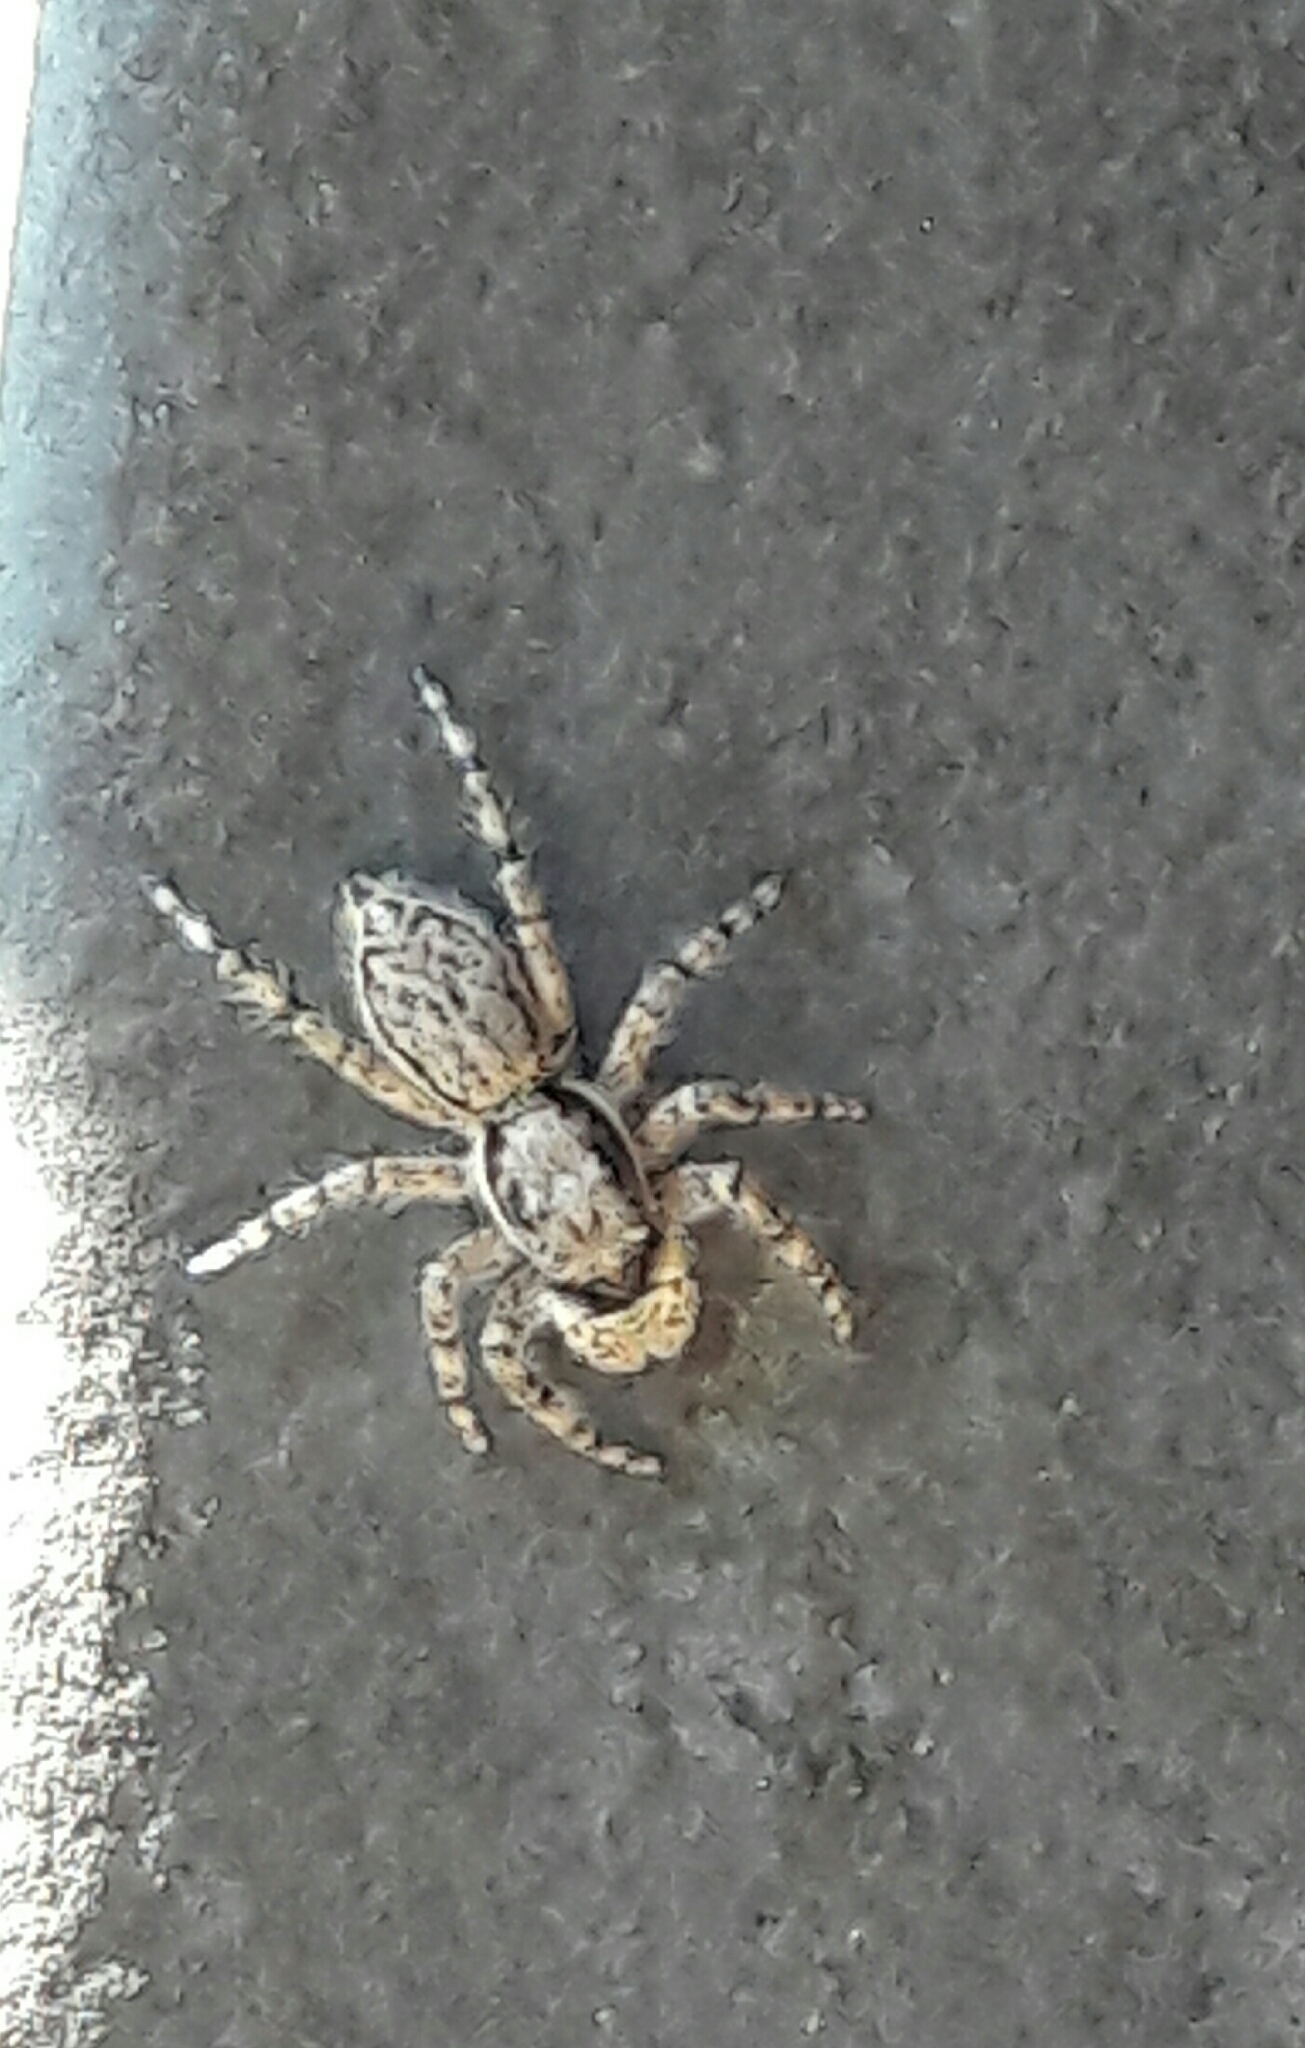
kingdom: Animalia
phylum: Arthropoda
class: Arachnida
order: Araneae
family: Salticidae
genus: Menemerus
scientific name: Menemerus bivittatus
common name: Gray wall jumper
